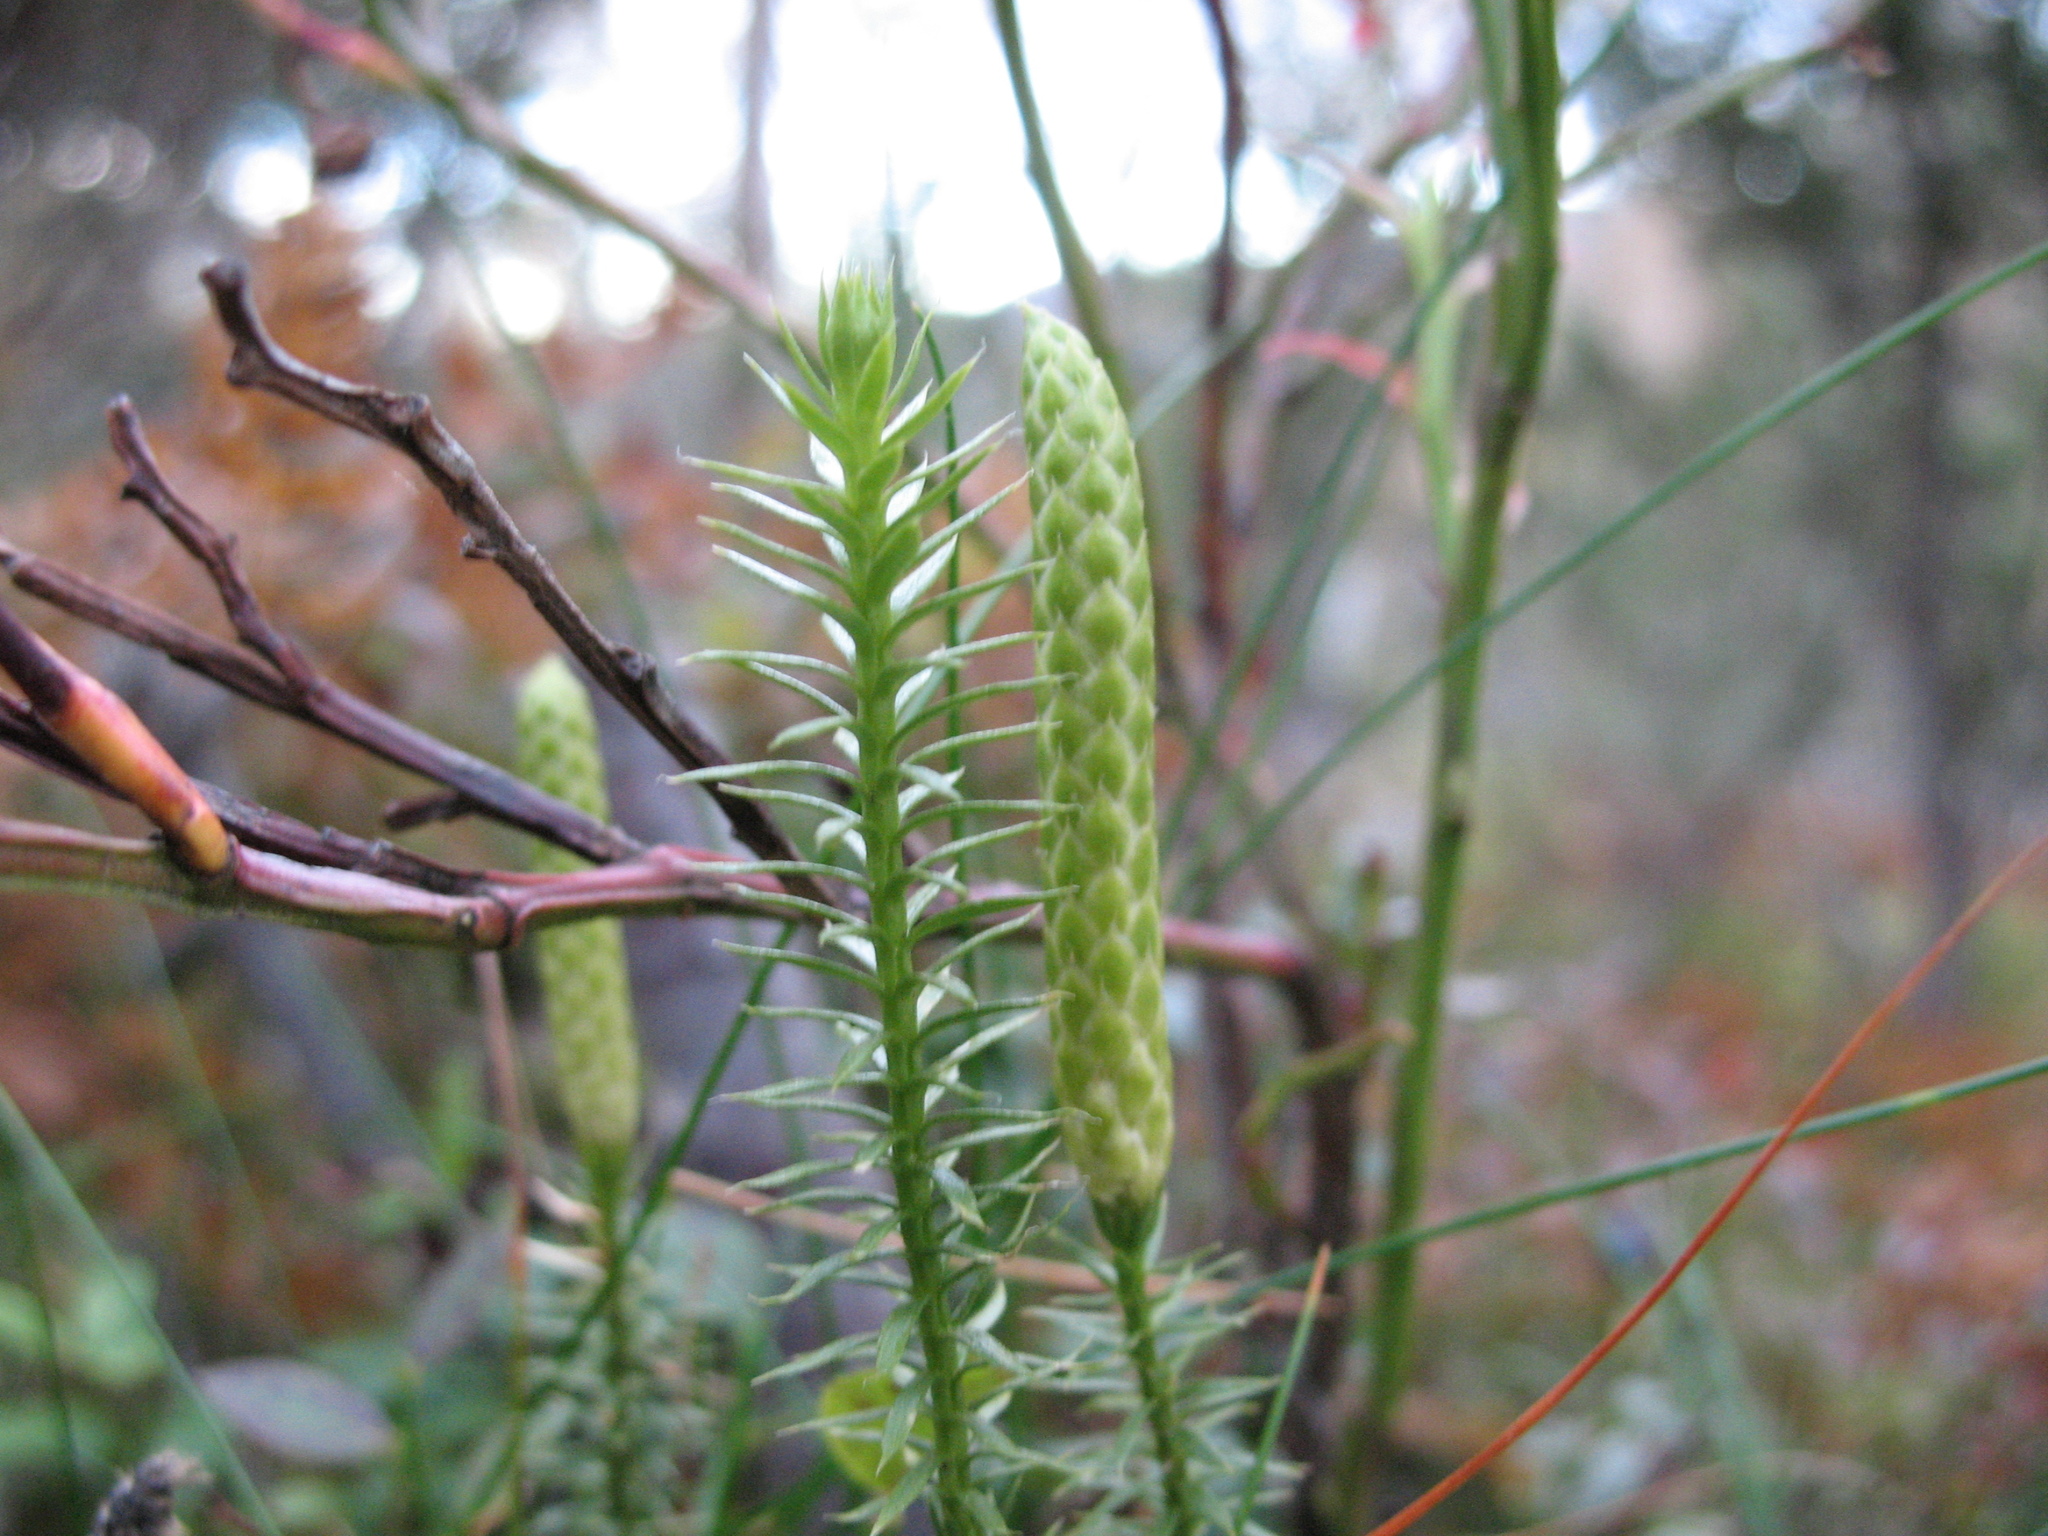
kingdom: Plantae
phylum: Tracheophyta
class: Lycopodiopsida
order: Lycopodiales
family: Lycopodiaceae
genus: Spinulum
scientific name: Spinulum annotinum
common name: Interrupted club-moss
